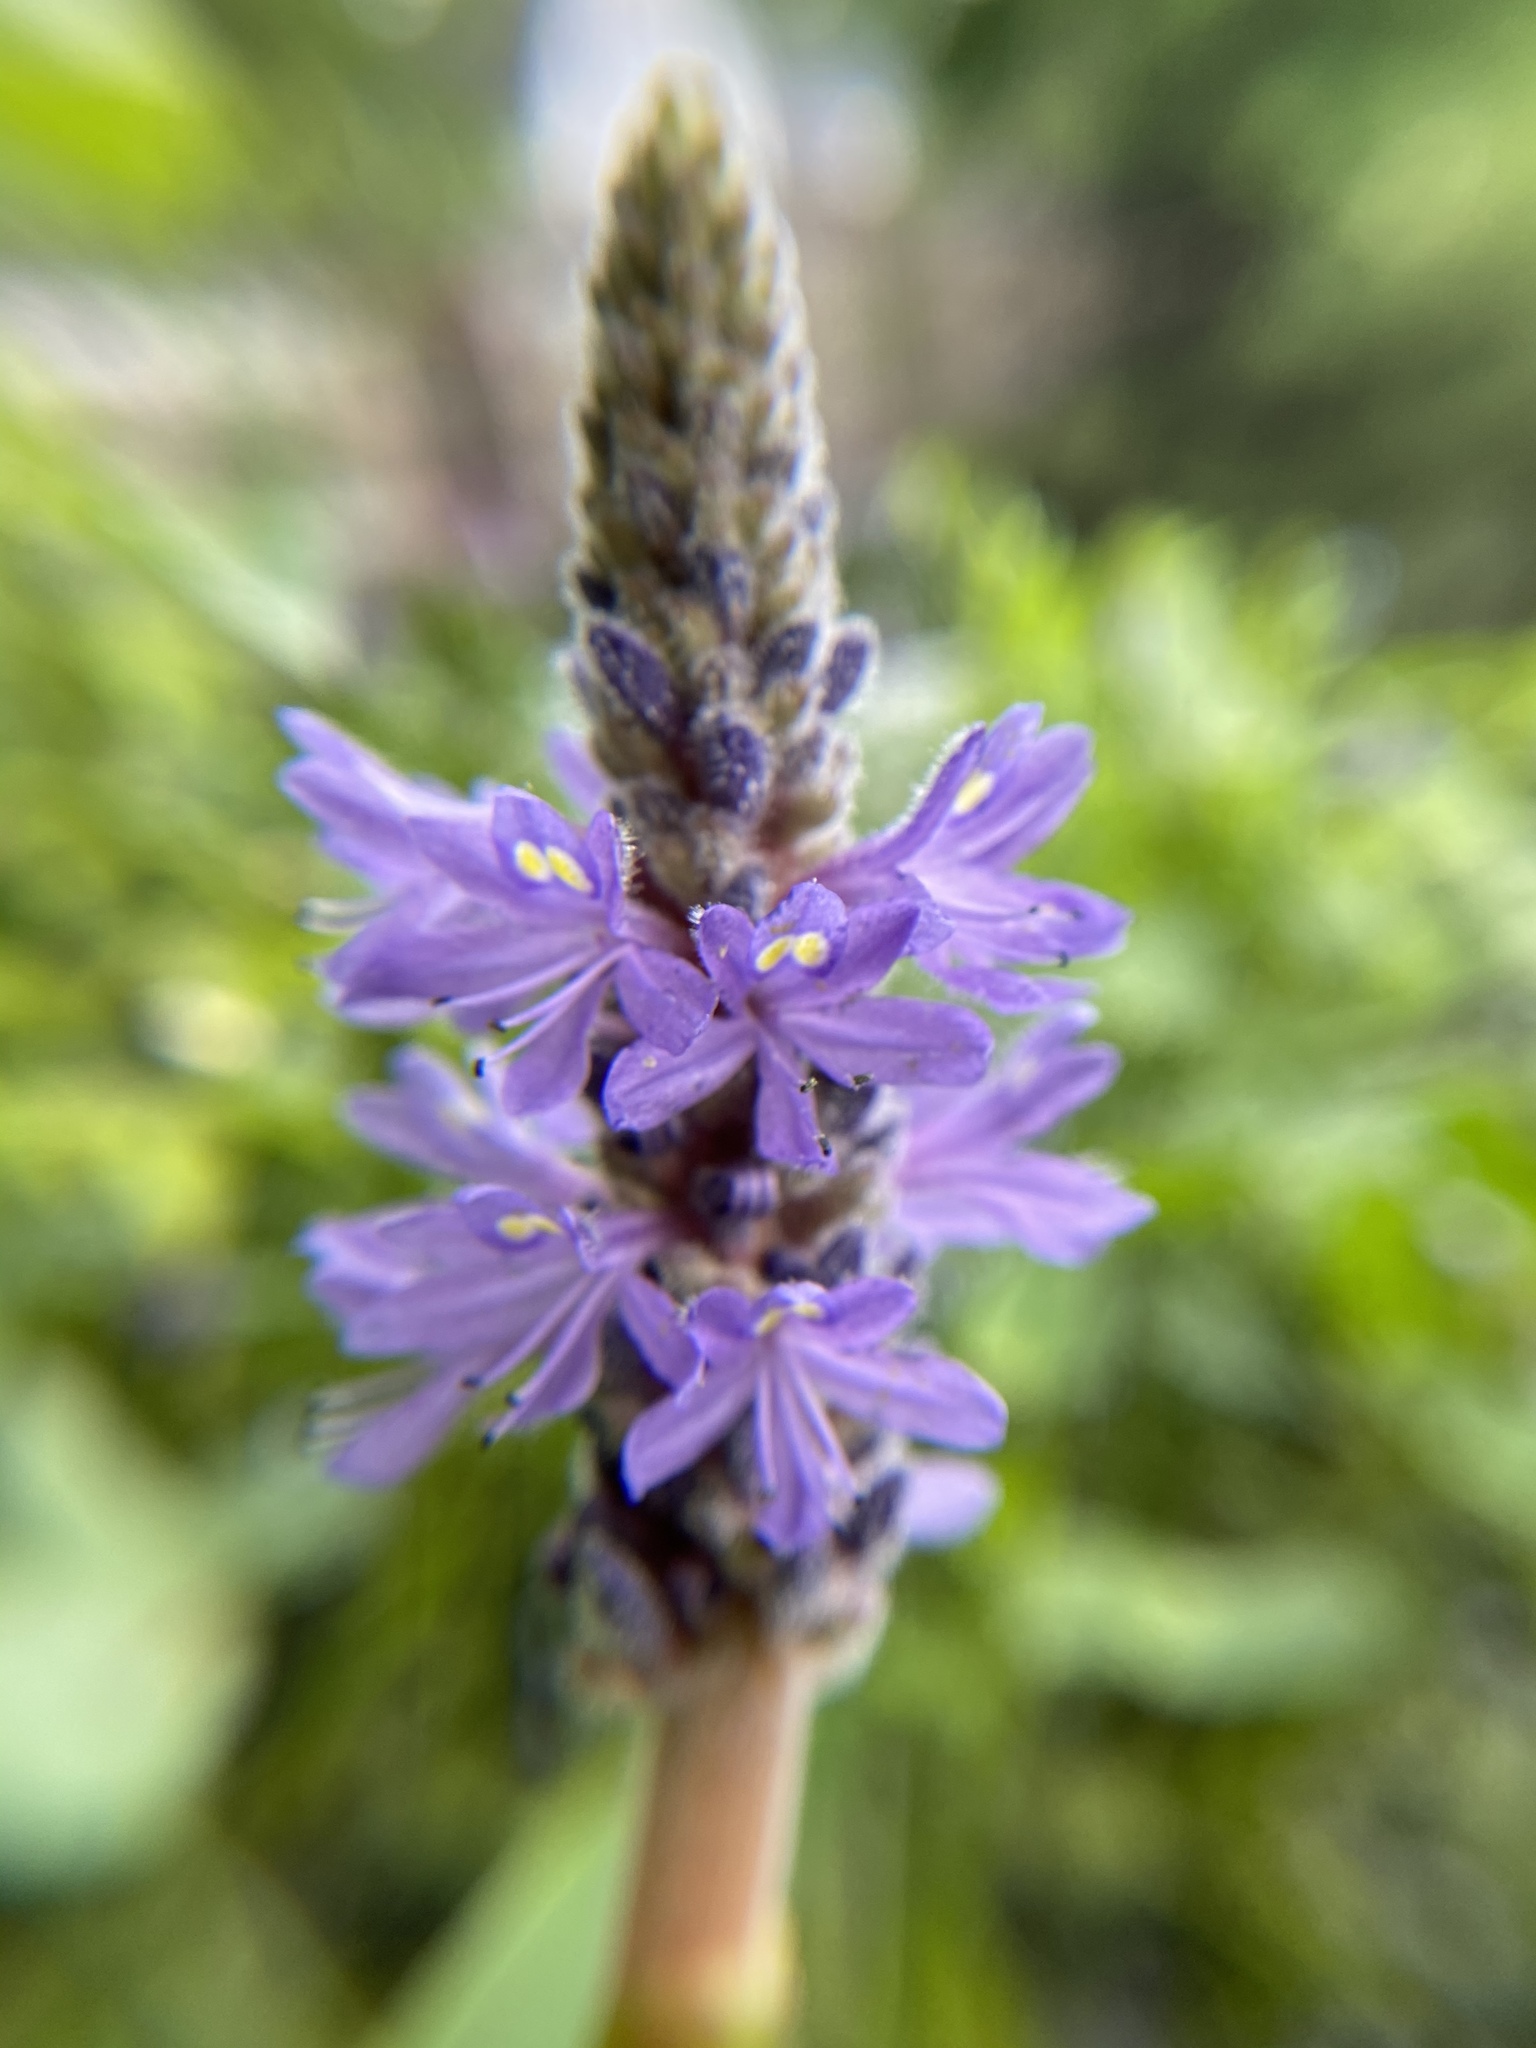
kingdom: Plantae
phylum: Tracheophyta
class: Liliopsida
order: Commelinales
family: Pontederiaceae
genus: Pontederia
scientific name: Pontederia cordata
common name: Pickerelweed
